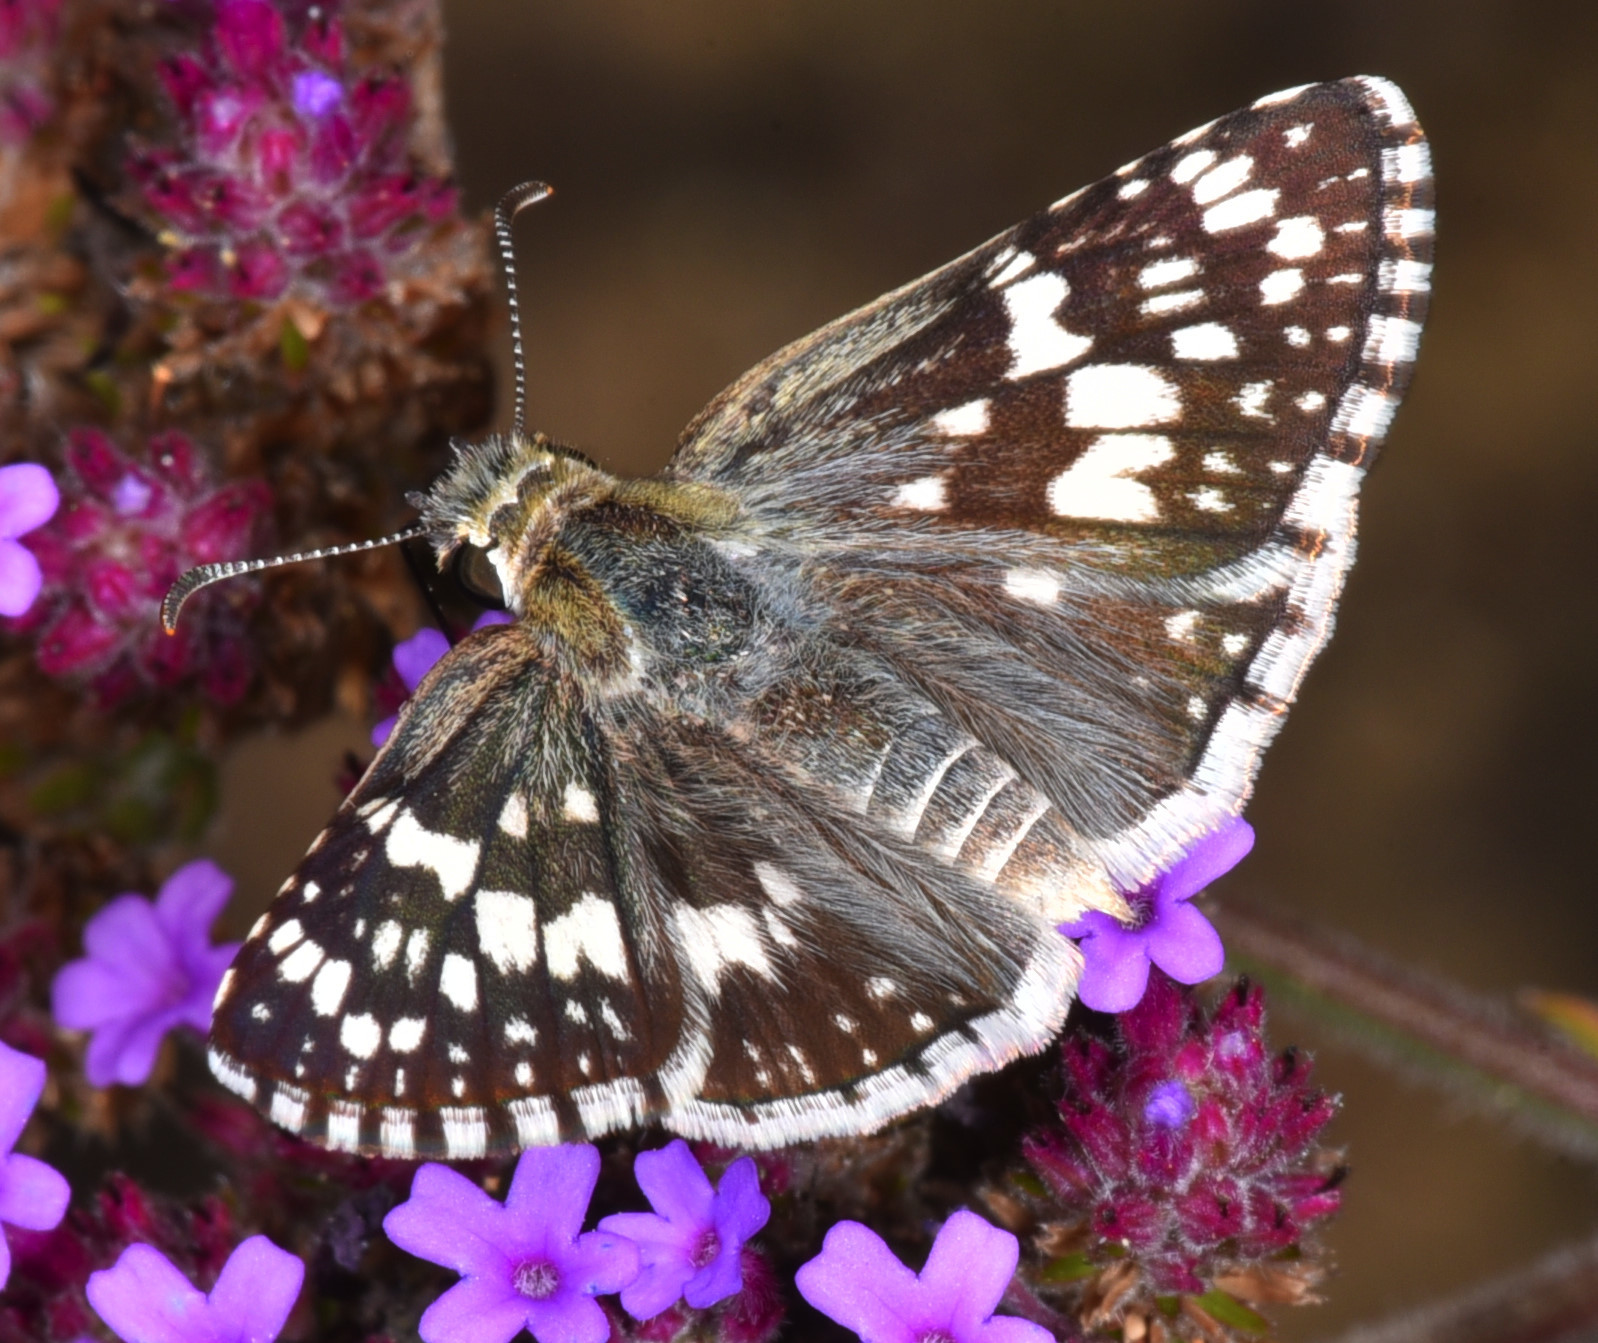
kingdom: Animalia
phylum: Arthropoda
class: Insecta
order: Lepidoptera
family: Hesperiidae
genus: Burnsius
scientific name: Burnsius communis
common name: Common checkered-skipper
